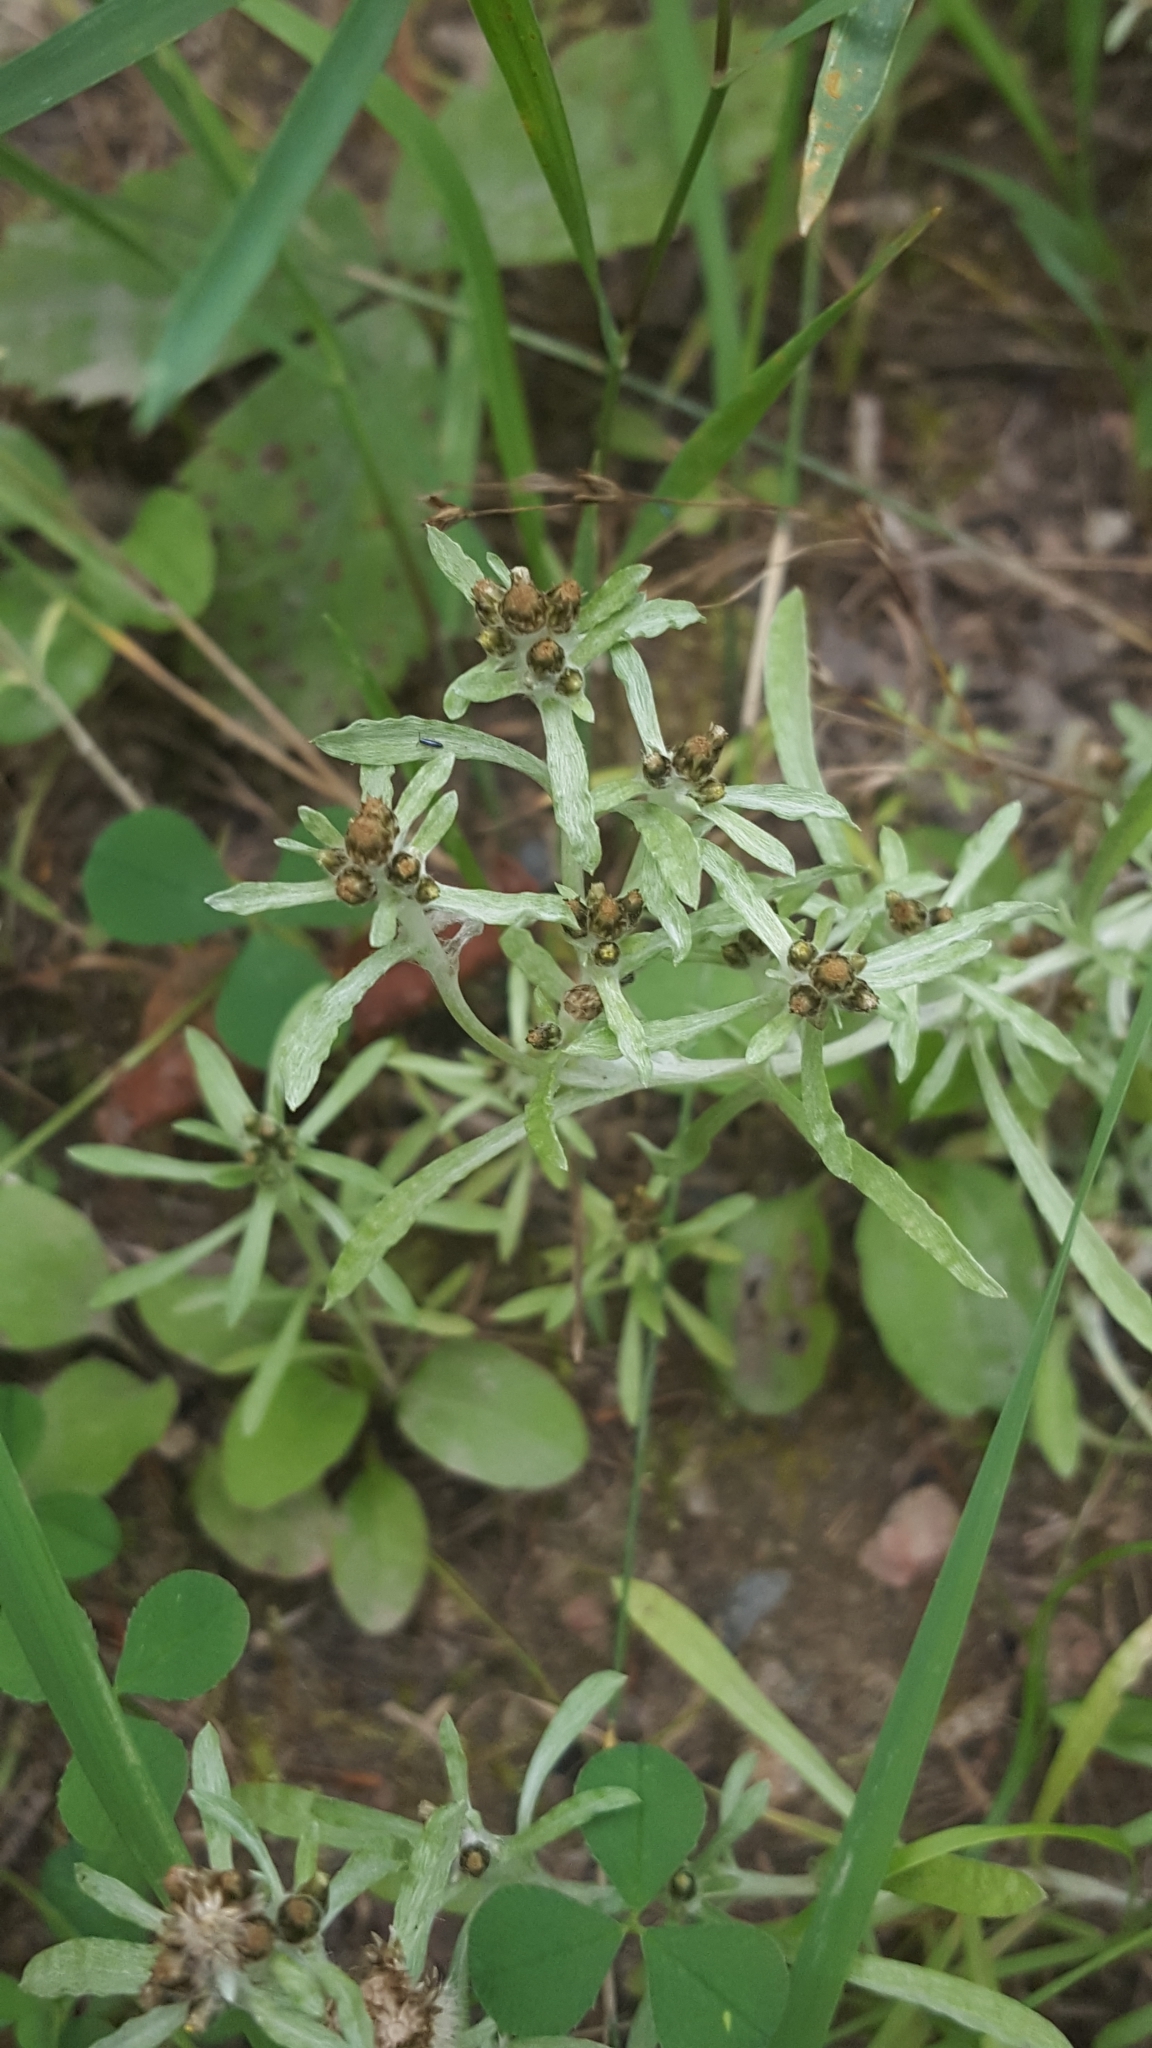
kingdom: Plantae
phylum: Tracheophyta
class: Magnoliopsida
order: Asterales
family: Asteraceae
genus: Gnaphalium
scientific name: Gnaphalium uliginosum
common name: Marsh cudweed
